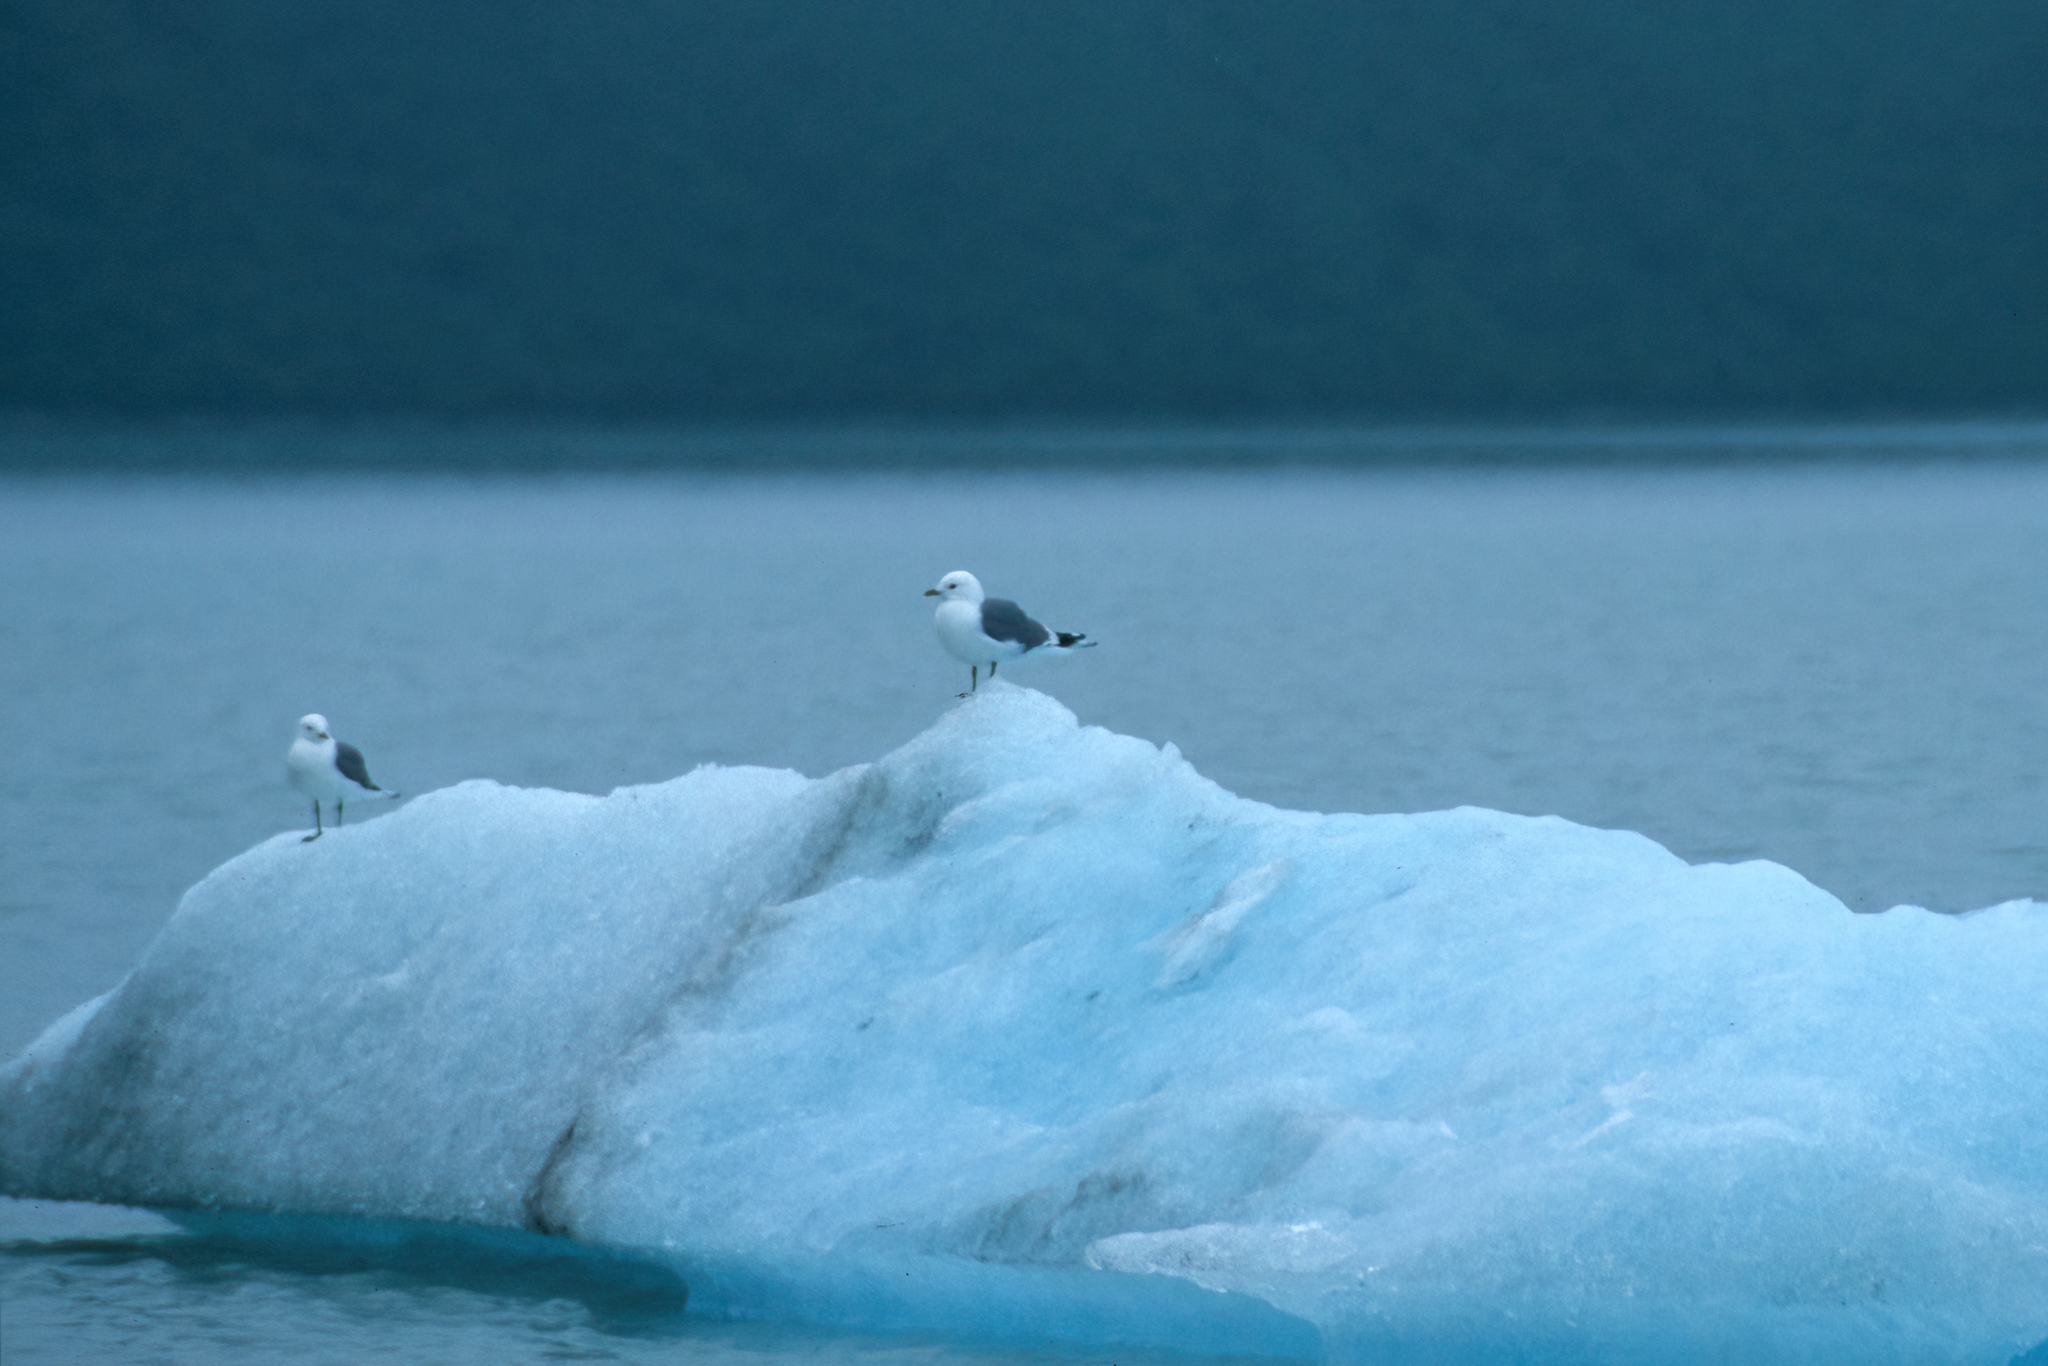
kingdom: Animalia
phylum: Chordata
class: Aves
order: Charadriiformes
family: Laridae
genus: Larus
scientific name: Larus brachyrhynchus
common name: Short-billed gull
